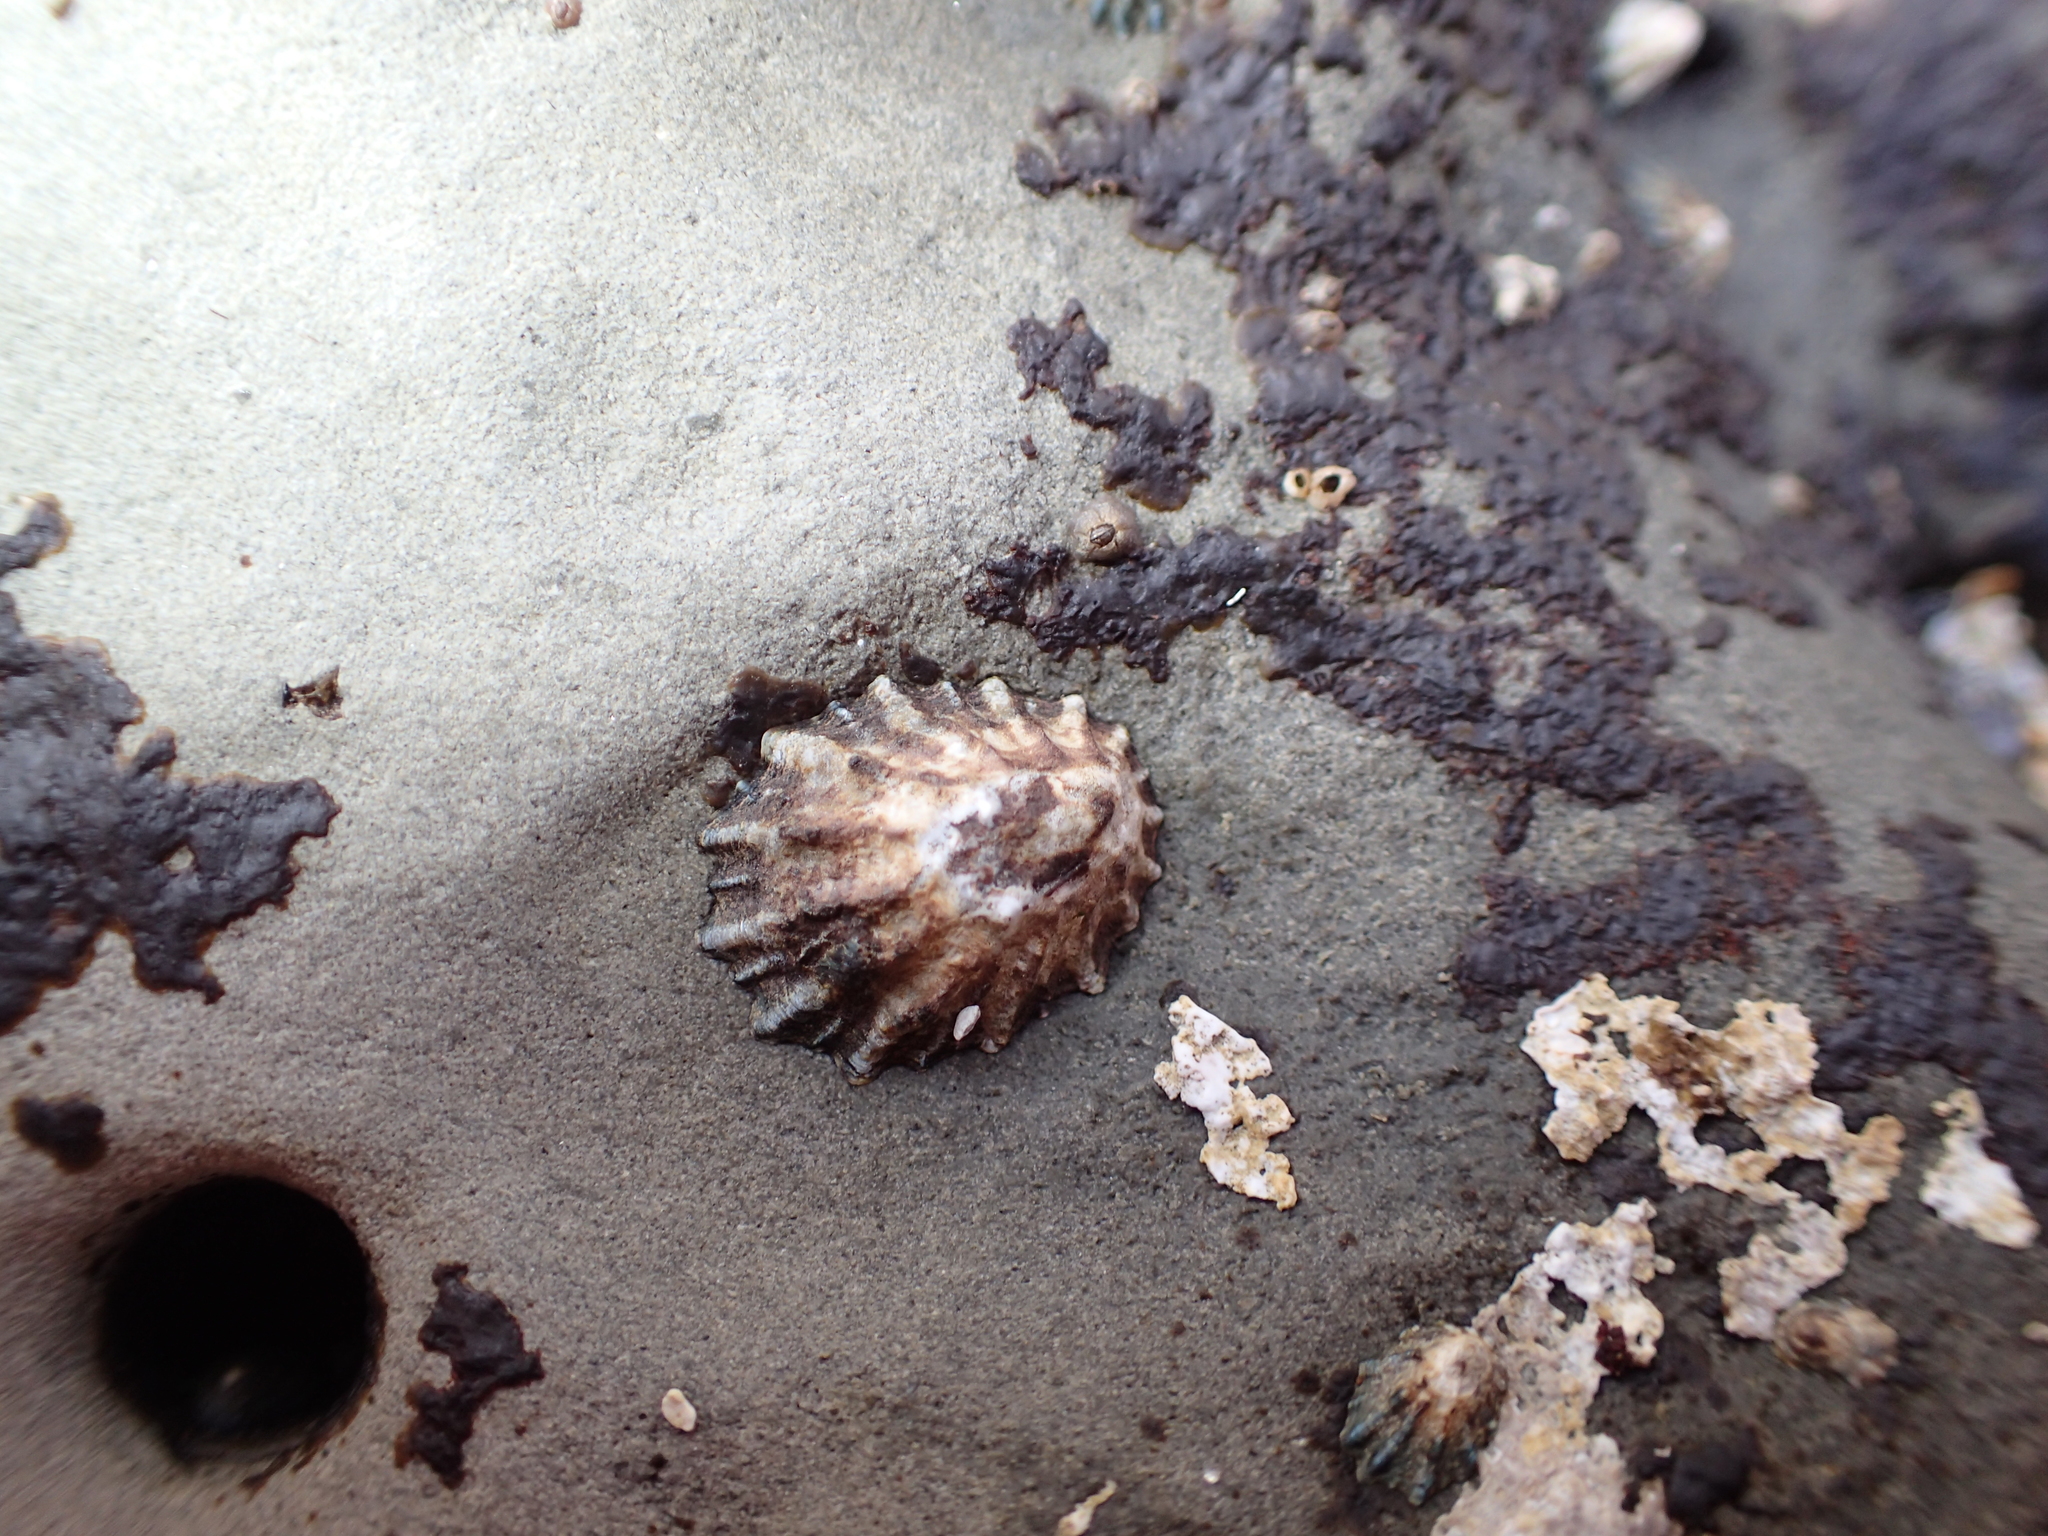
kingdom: Animalia
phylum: Mollusca
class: Gastropoda
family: Lottiidae
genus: Lottia
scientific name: Lottia scabra
